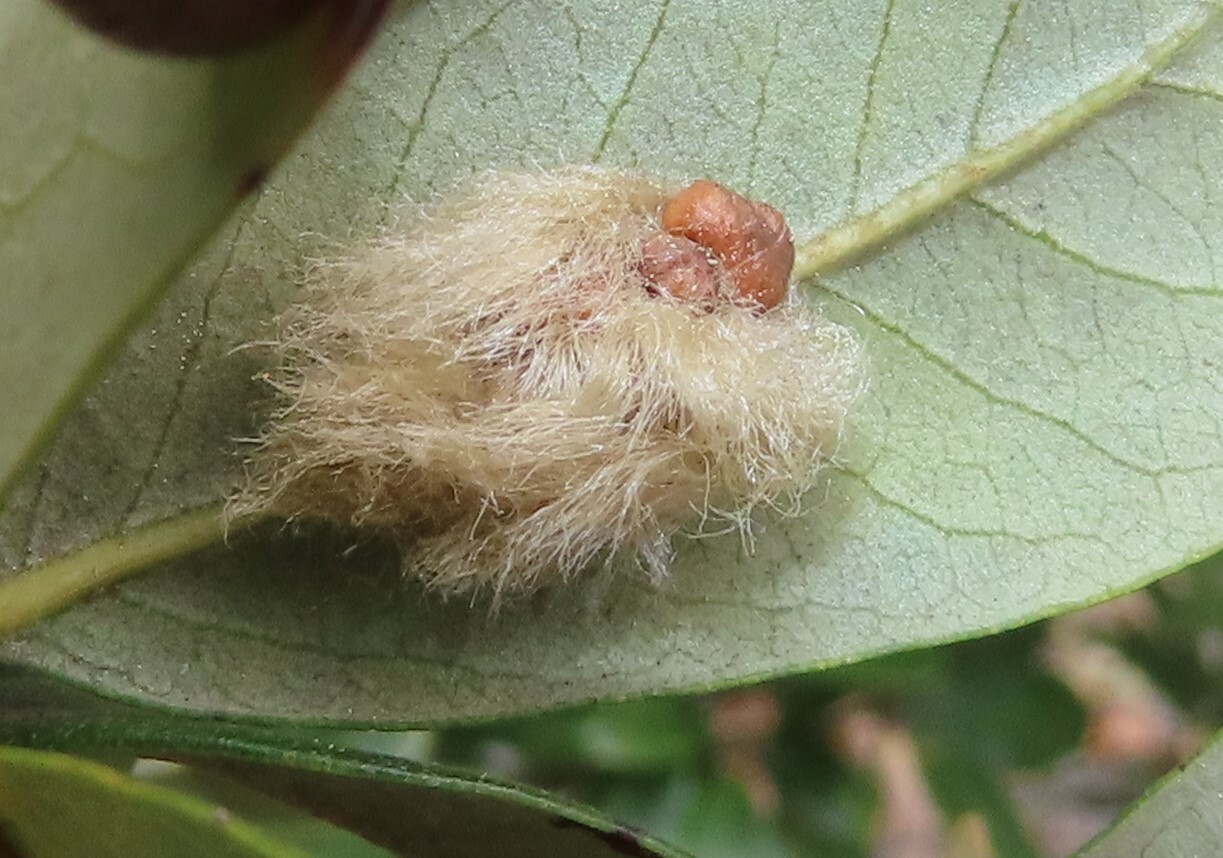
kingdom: Animalia
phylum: Arthropoda
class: Insecta
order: Hymenoptera
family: Cynipidae
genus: Andricus
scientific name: Andricus Druon quercuslanigerum
